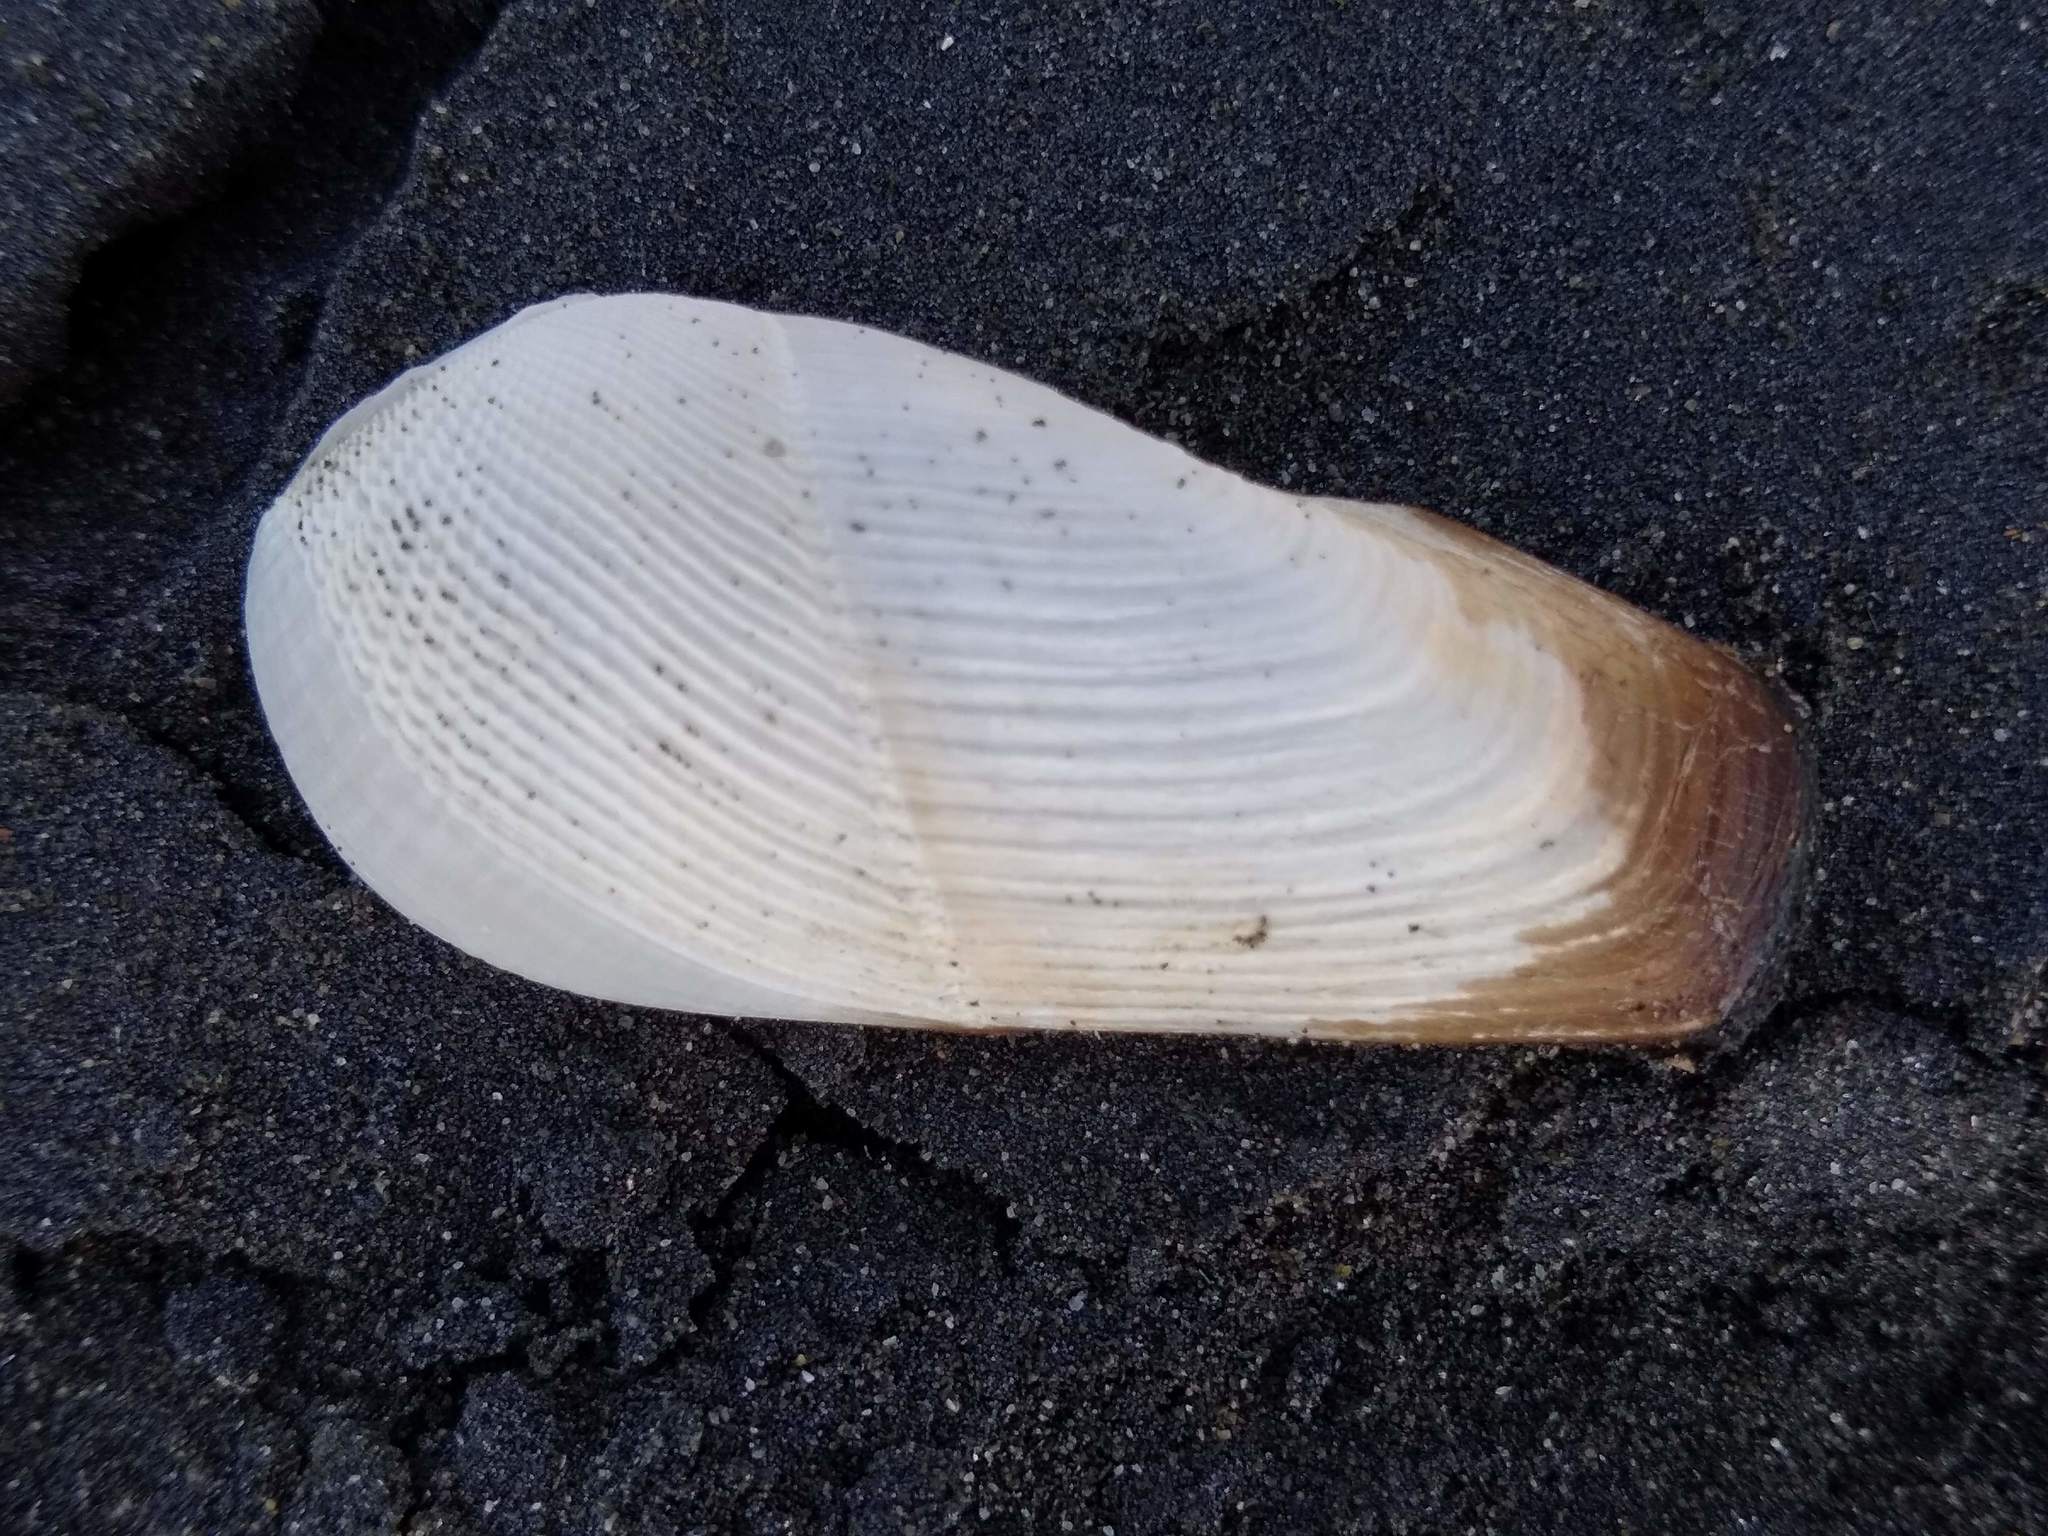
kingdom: Animalia
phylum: Mollusca
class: Bivalvia
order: Myida
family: Pholadidae
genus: Pholadidea
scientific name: Pholadidea suteri
